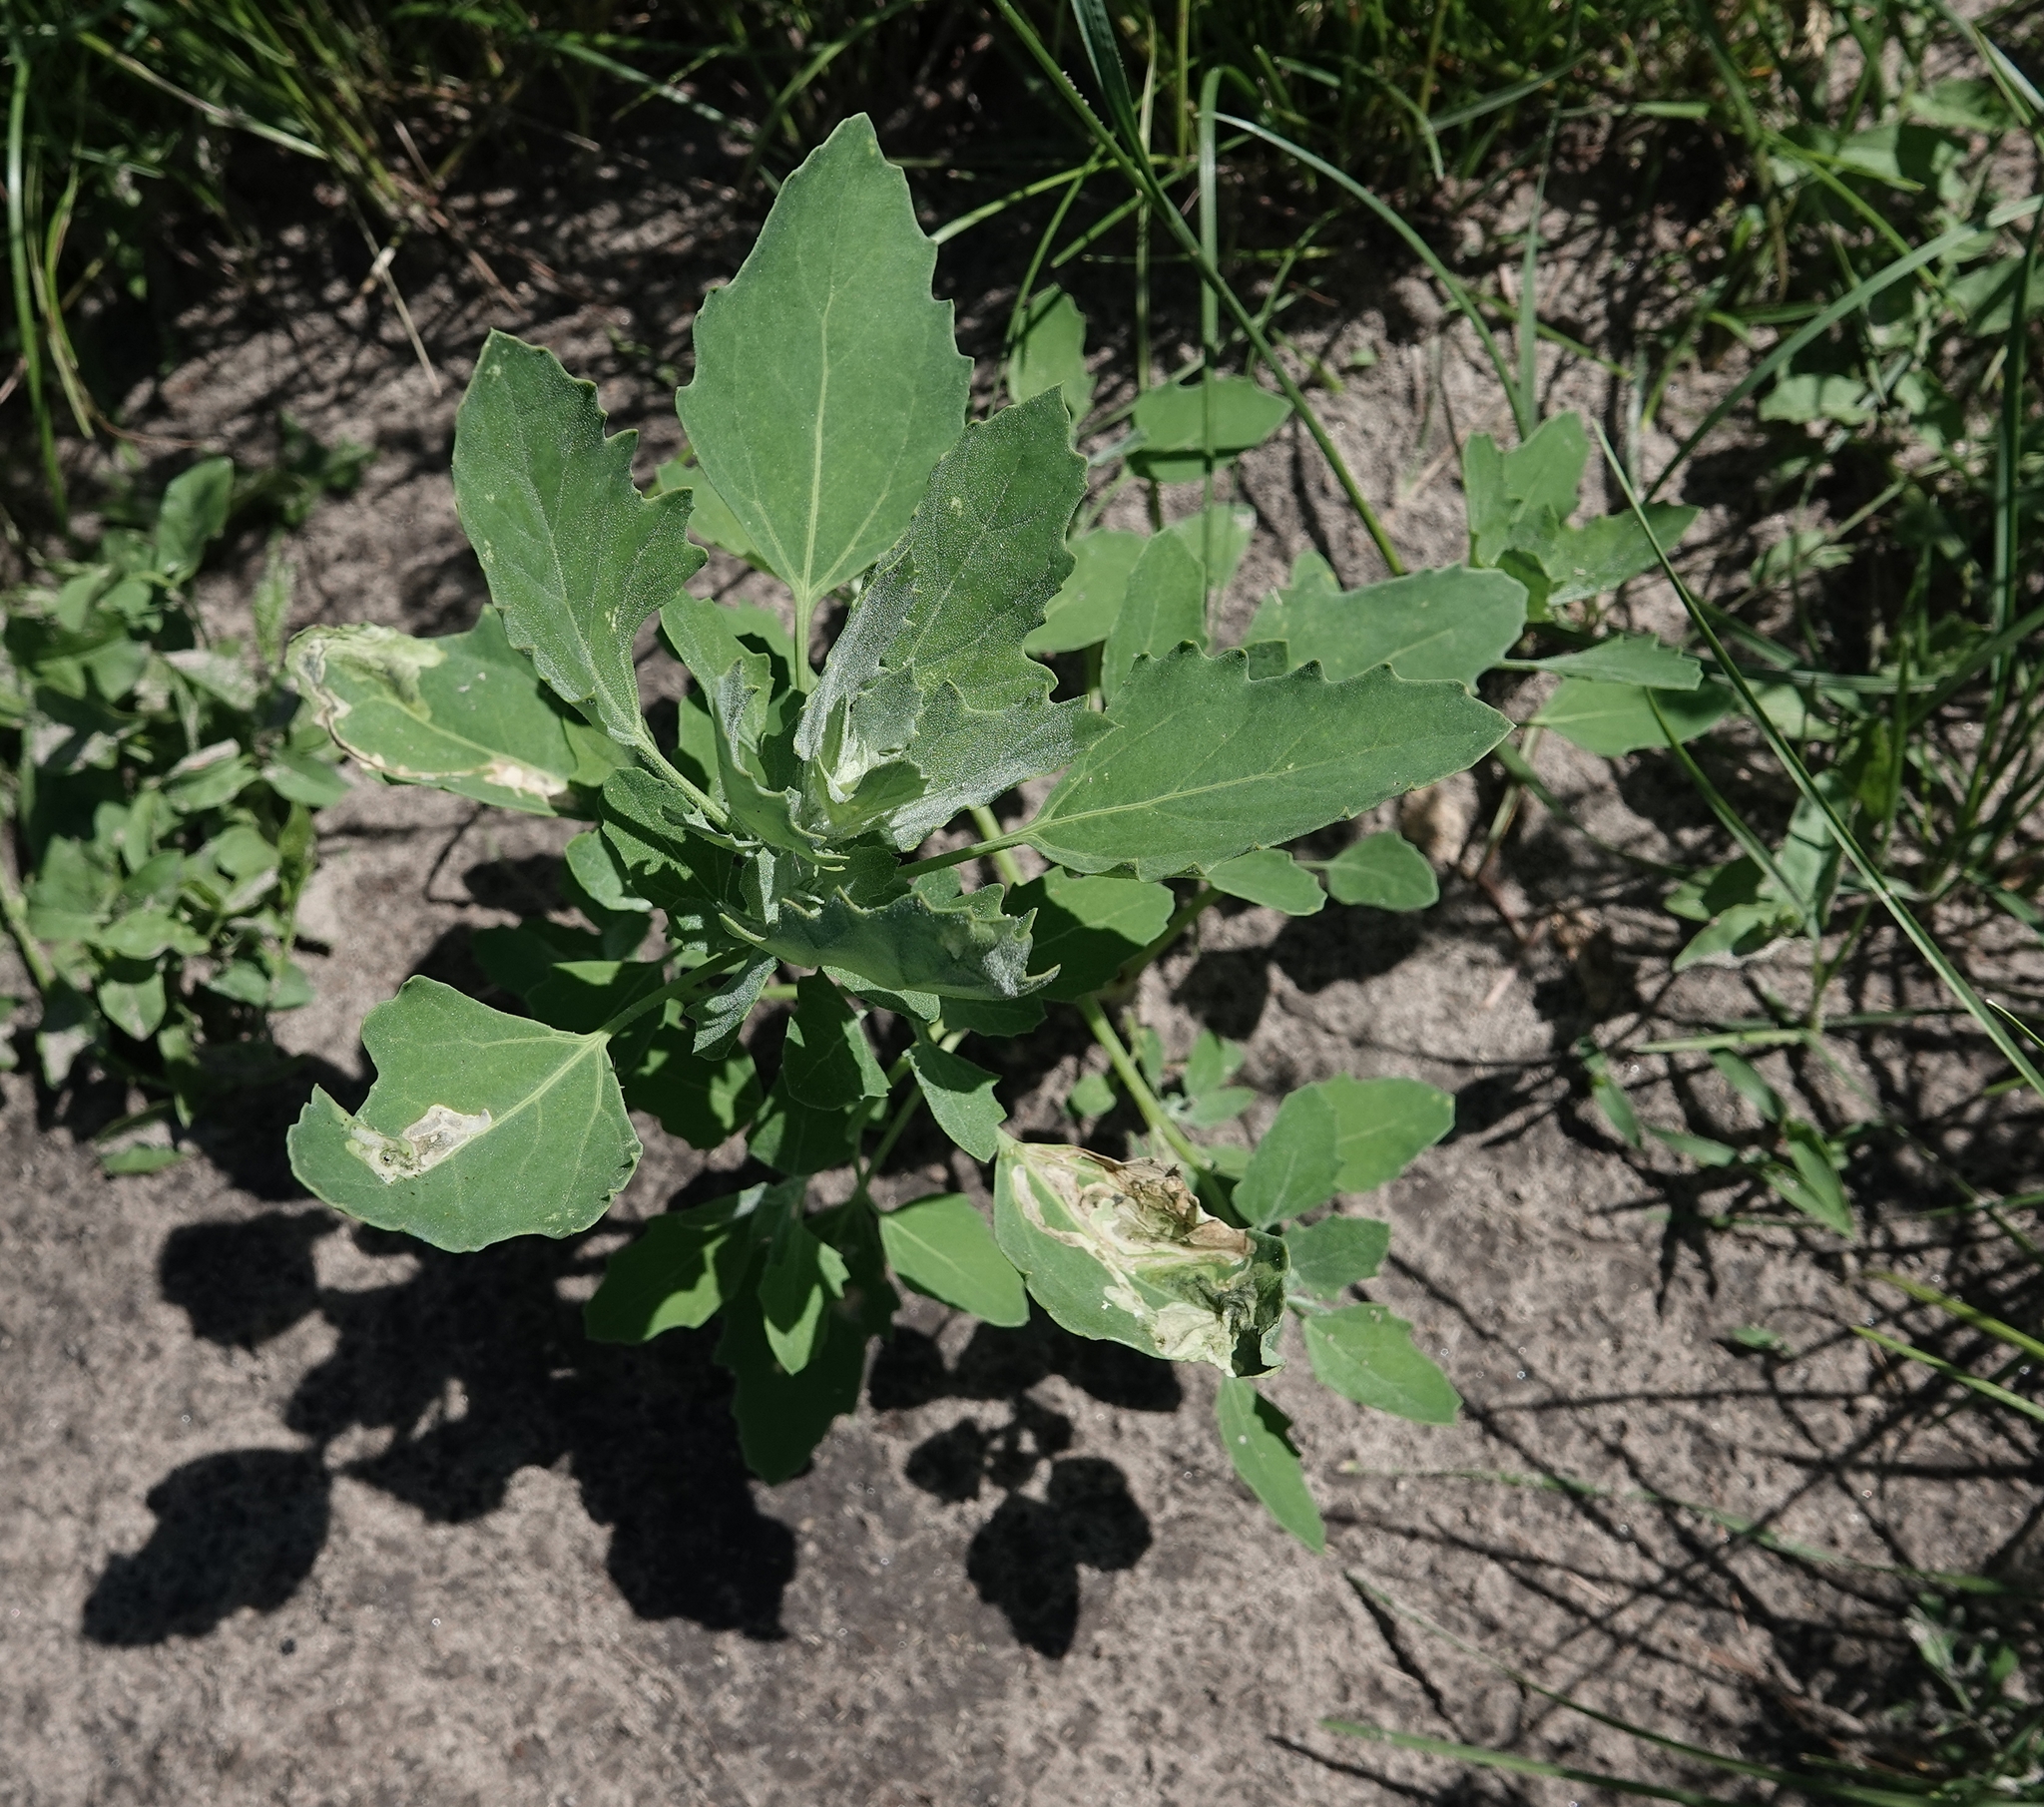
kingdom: Plantae
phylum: Tracheophyta
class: Magnoliopsida
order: Caryophyllales
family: Amaranthaceae
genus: Chenopodium
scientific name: Chenopodium album
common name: Fat-hen
